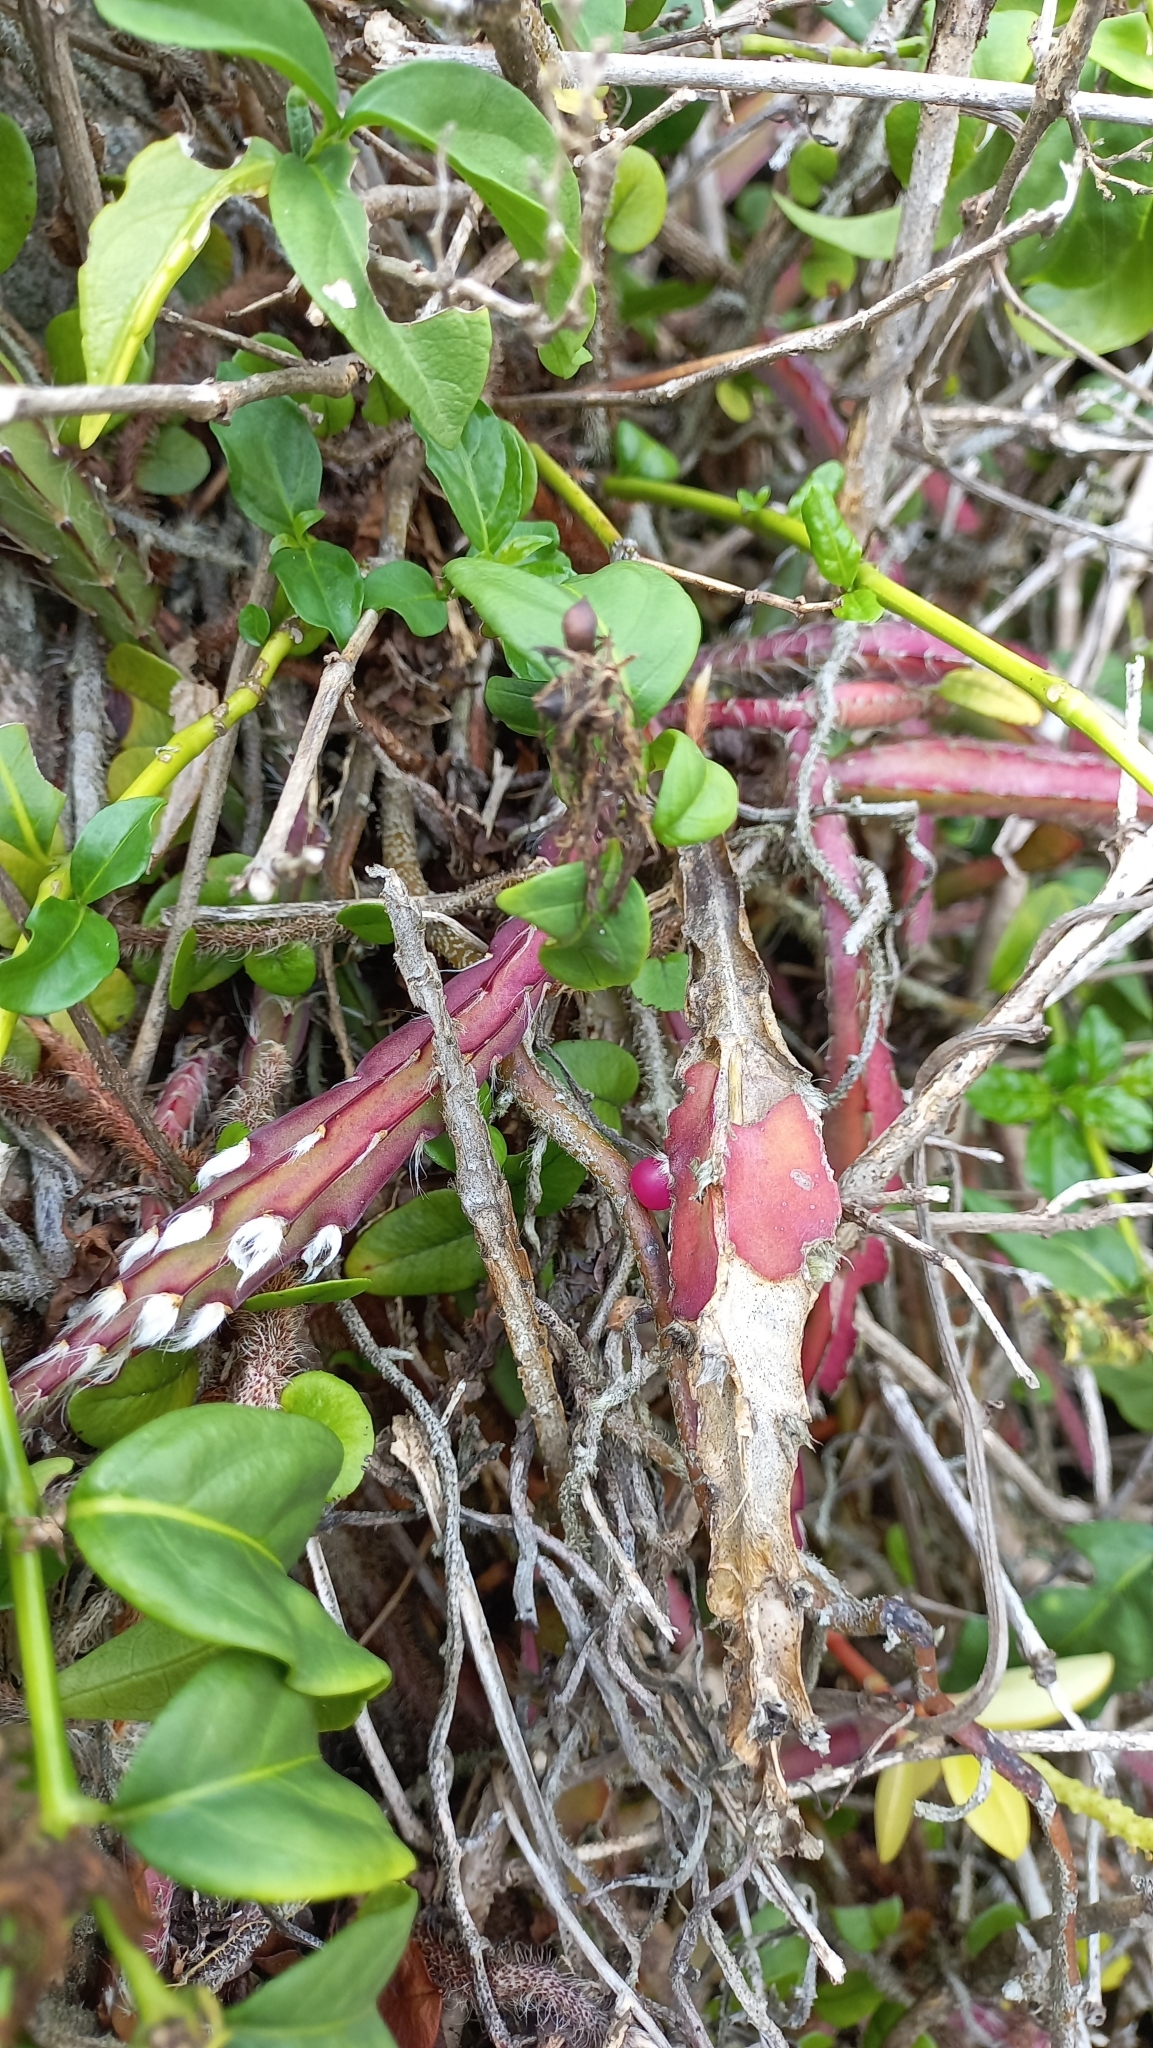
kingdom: Plantae
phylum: Tracheophyta
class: Magnoliopsida
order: Caryophyllales
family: Cactaceae
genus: Lepismium
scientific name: Lepismium cruciforme
